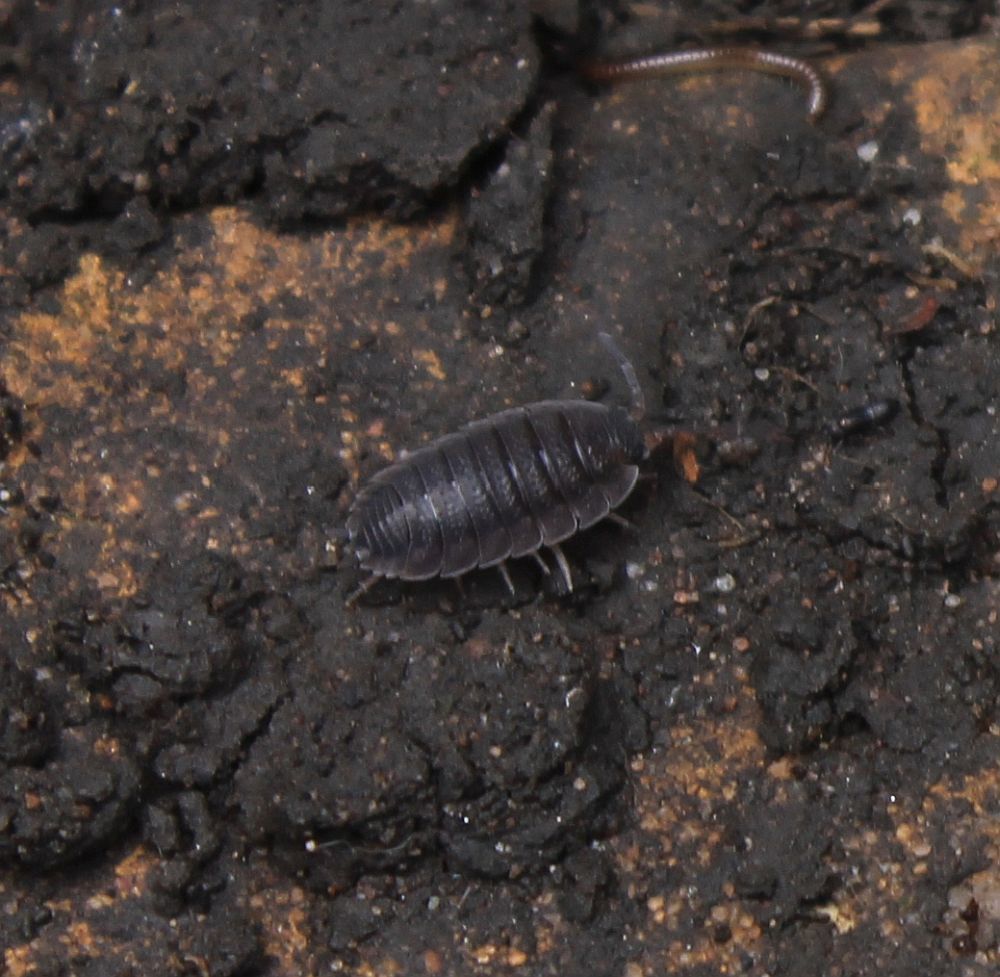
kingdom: Animalia
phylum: Arthropoda
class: Malacostraca
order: Isopoda
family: Porcellionidae
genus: Porcellio
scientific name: Porcellio scaber
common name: Common rough woodlouse
